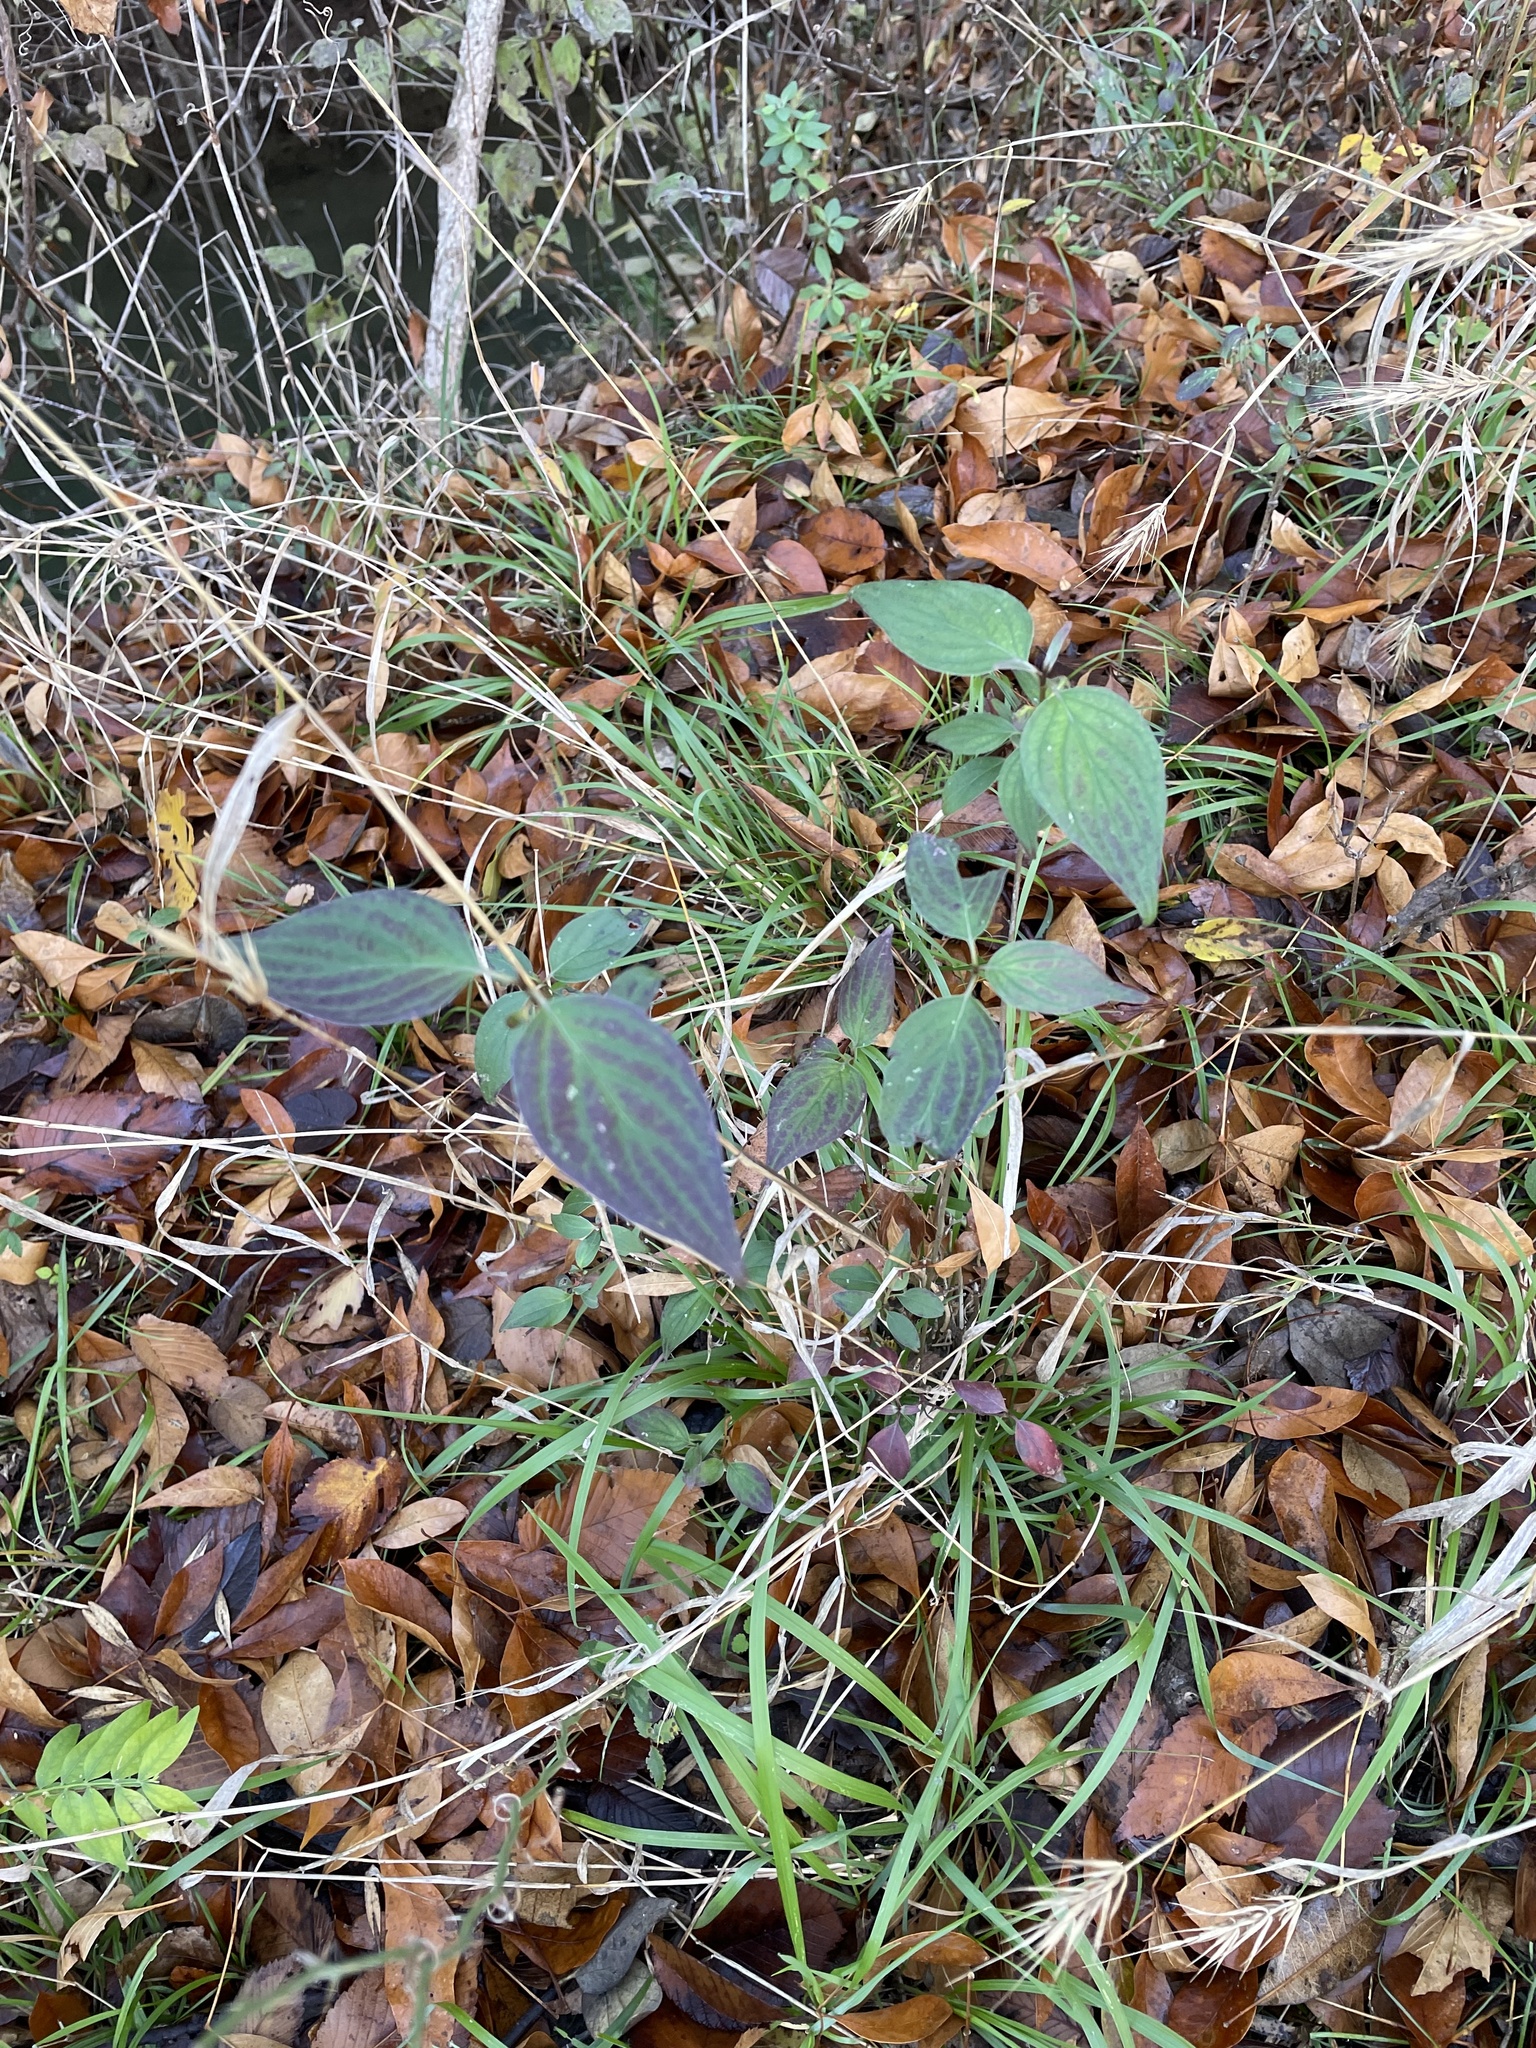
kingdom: Plantae
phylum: Tracheophyta
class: Magnoliopsida
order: Cornales
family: Cornaceae
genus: Cornus
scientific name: Cornus drummondii
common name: Rough-leaf dogwood
